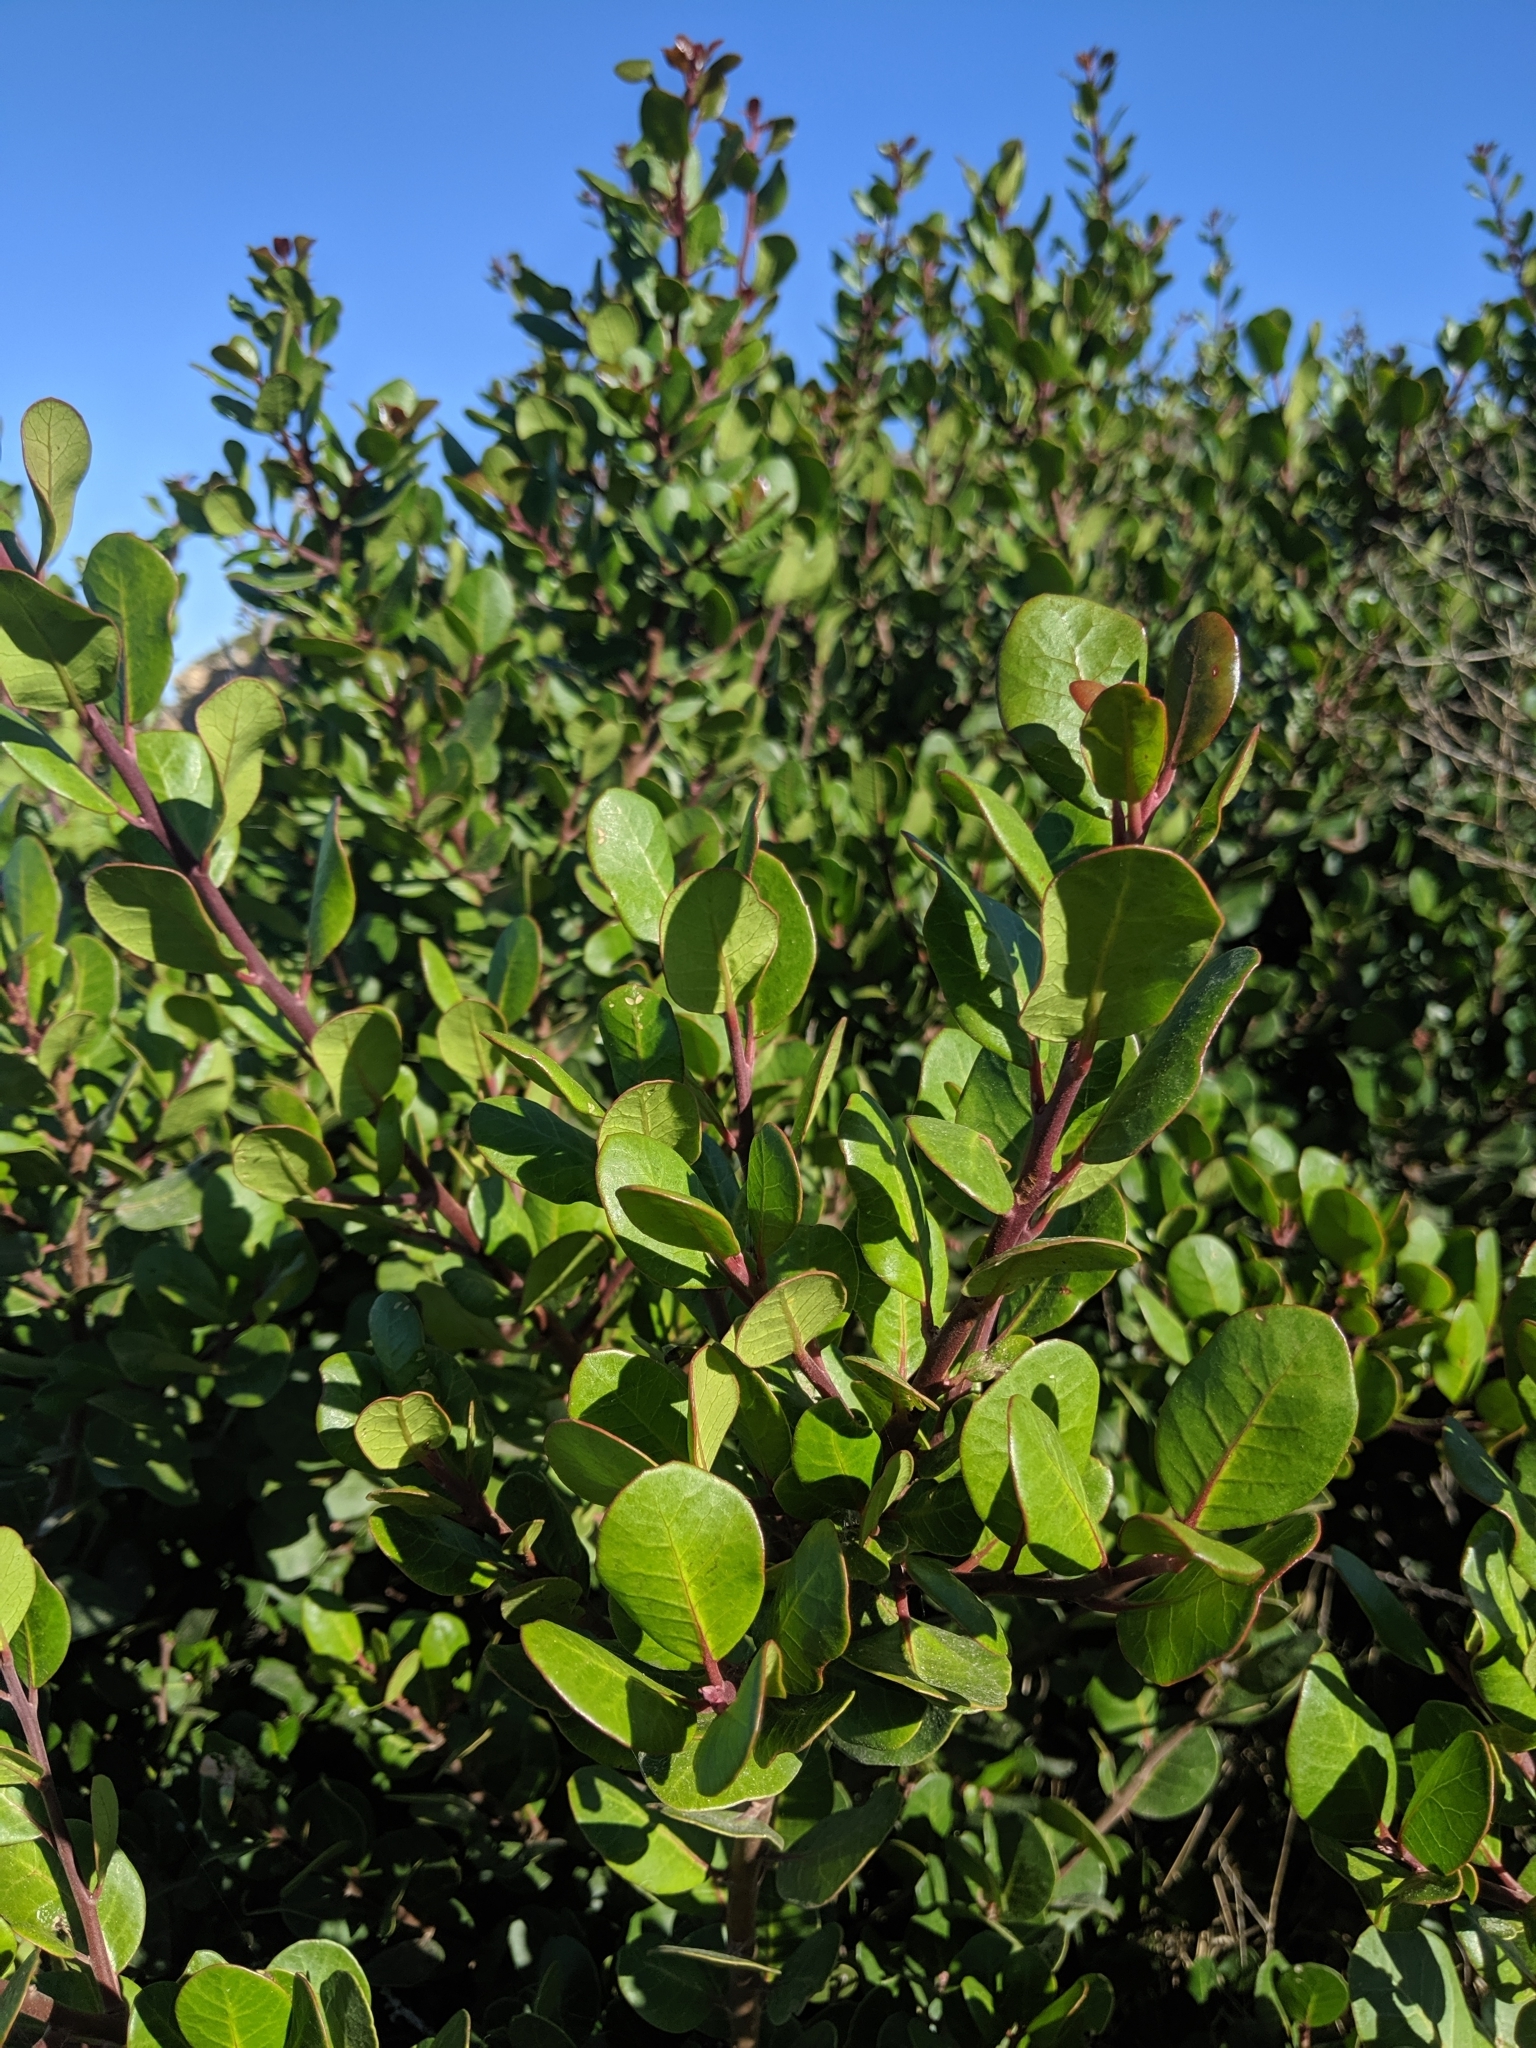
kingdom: Plantae
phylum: Tracheophyta
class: Magnoliopsida
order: Sapindales
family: Anacardiaceae
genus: Rhus
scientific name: Rhus integrifolia
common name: Lemonade sumac
